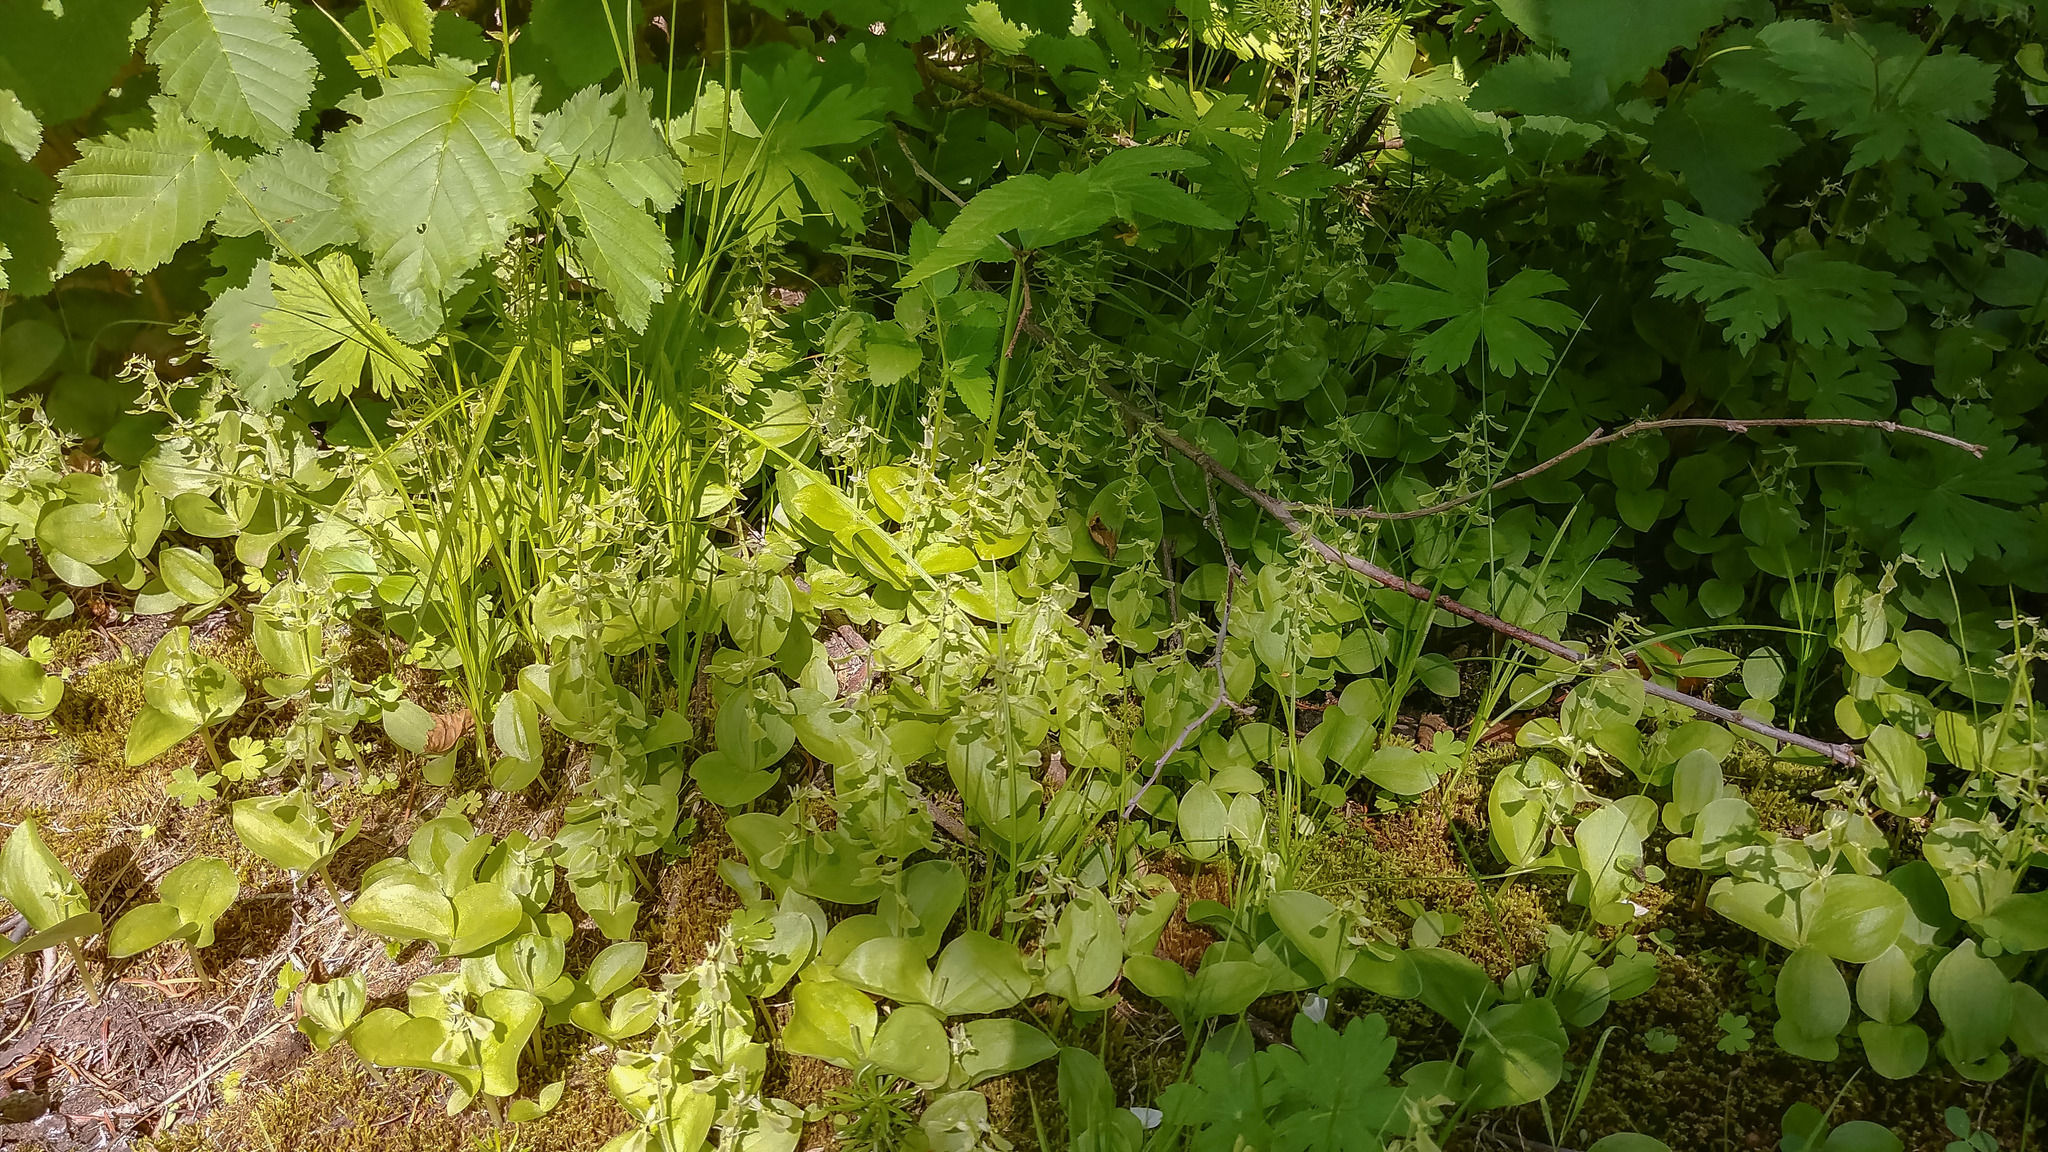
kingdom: Plantae
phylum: Tracheophyta
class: Liliopsida
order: Asparagales
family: Orchidaceae
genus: Neottia
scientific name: Neottia convallarioides
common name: Broadleaf twayblade
